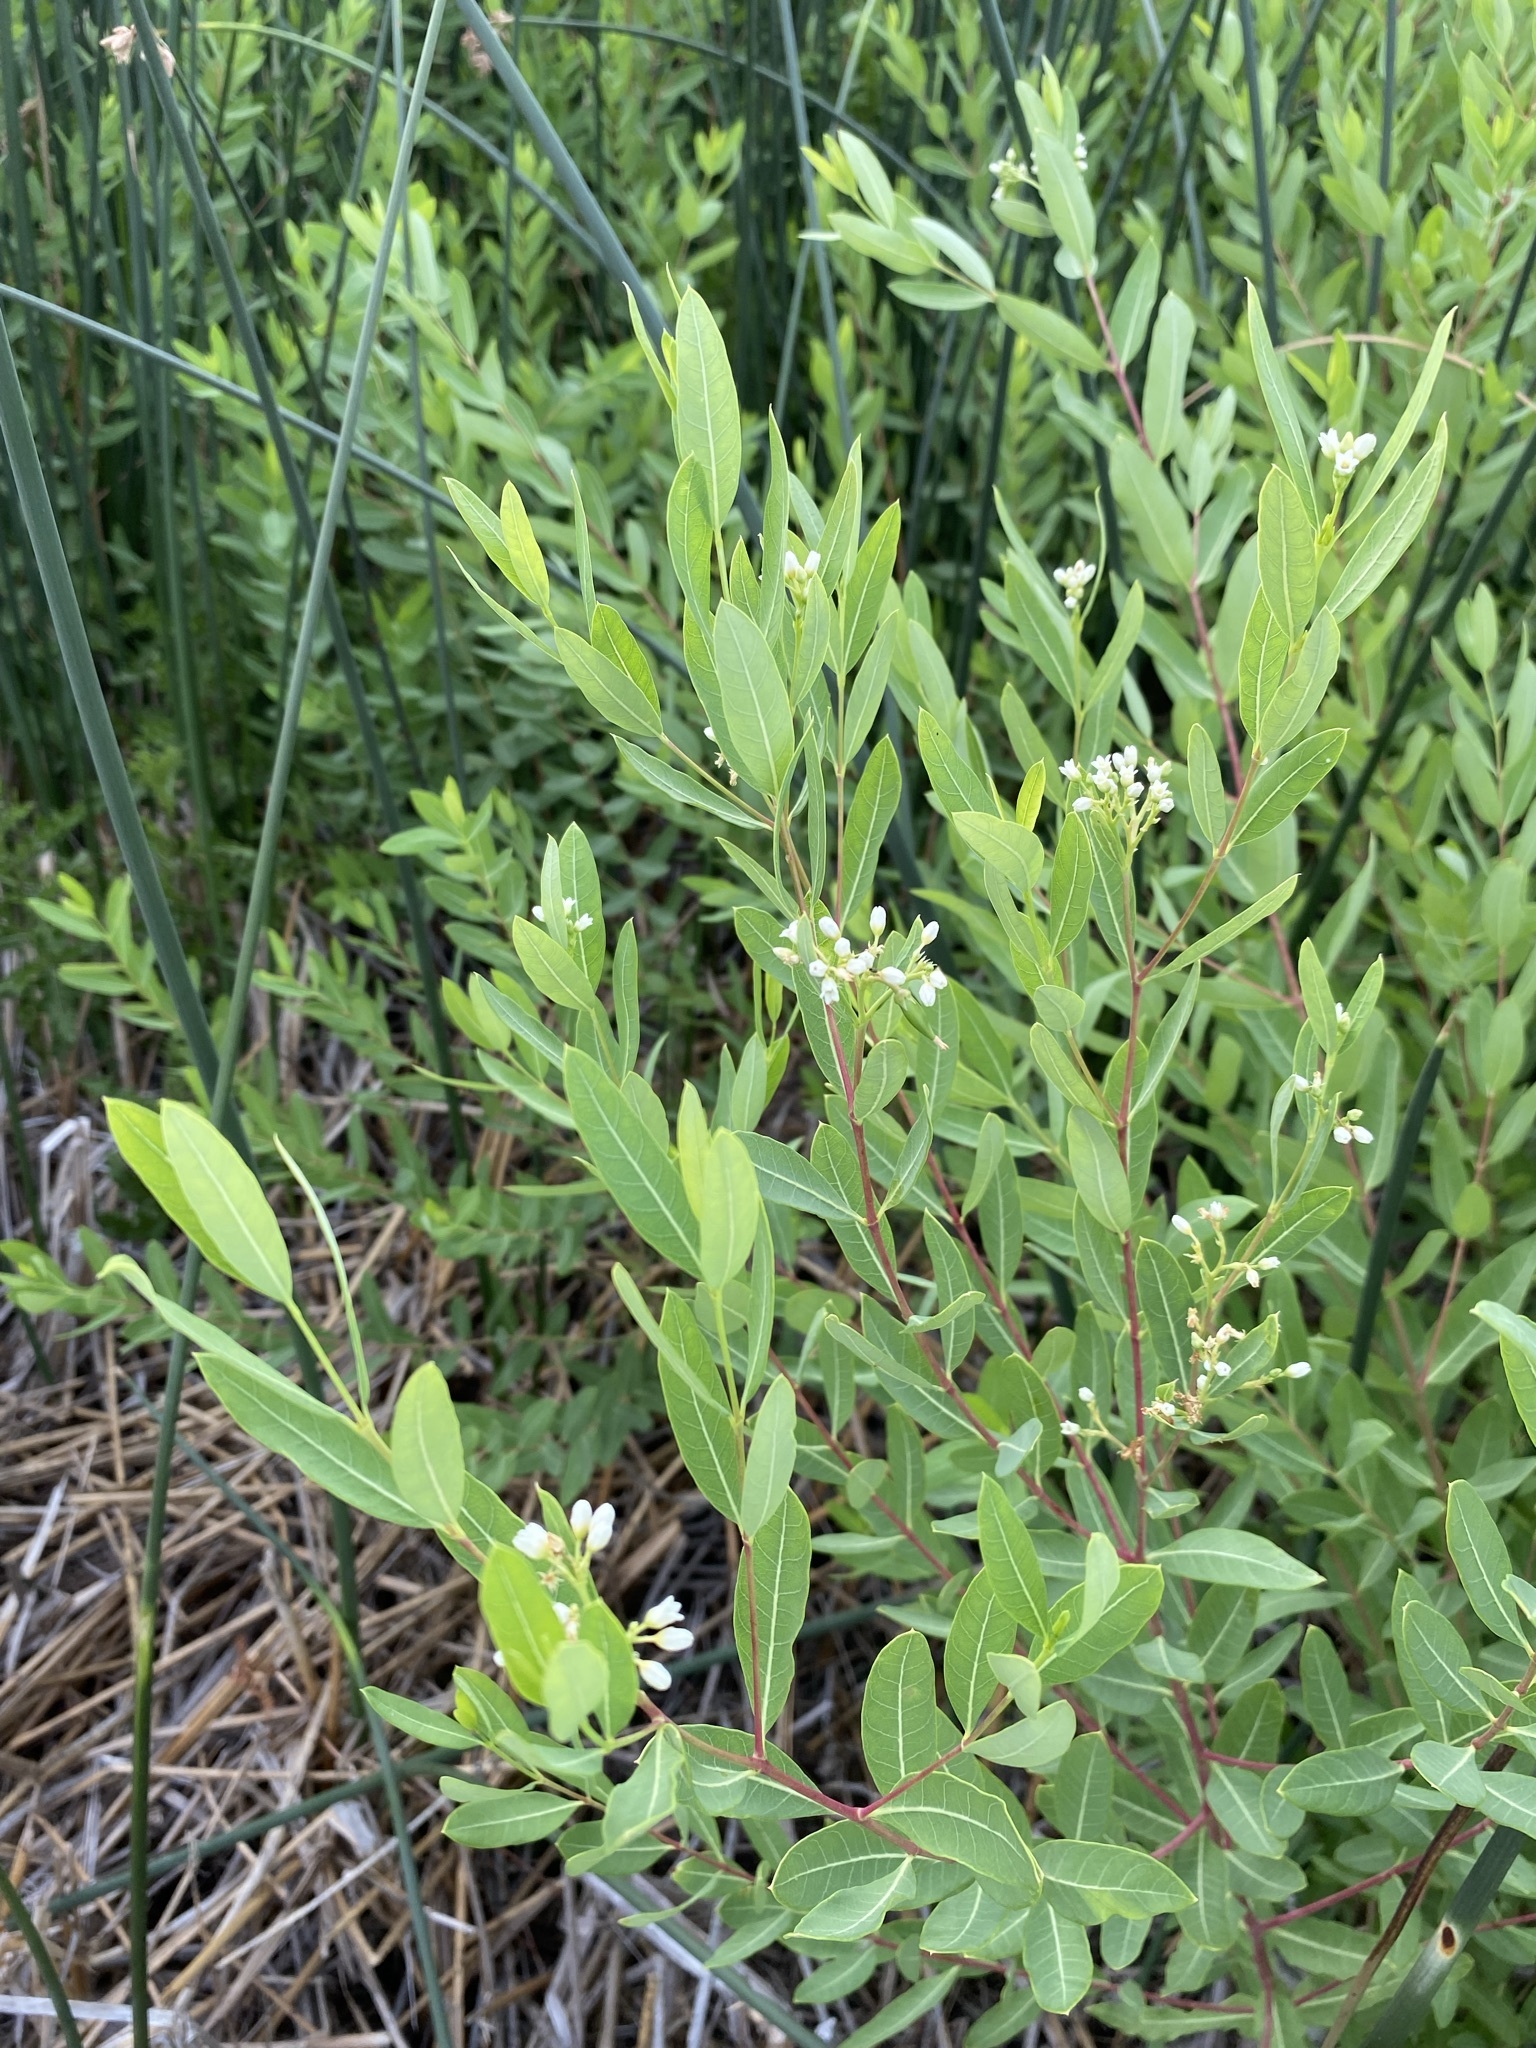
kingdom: Plantae
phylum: Tracheophyta
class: Magnoliopsida
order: Gentianales
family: Apocynaceae
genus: Apocynum
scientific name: Apocynum cannabinum
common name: Hemp dogbane
